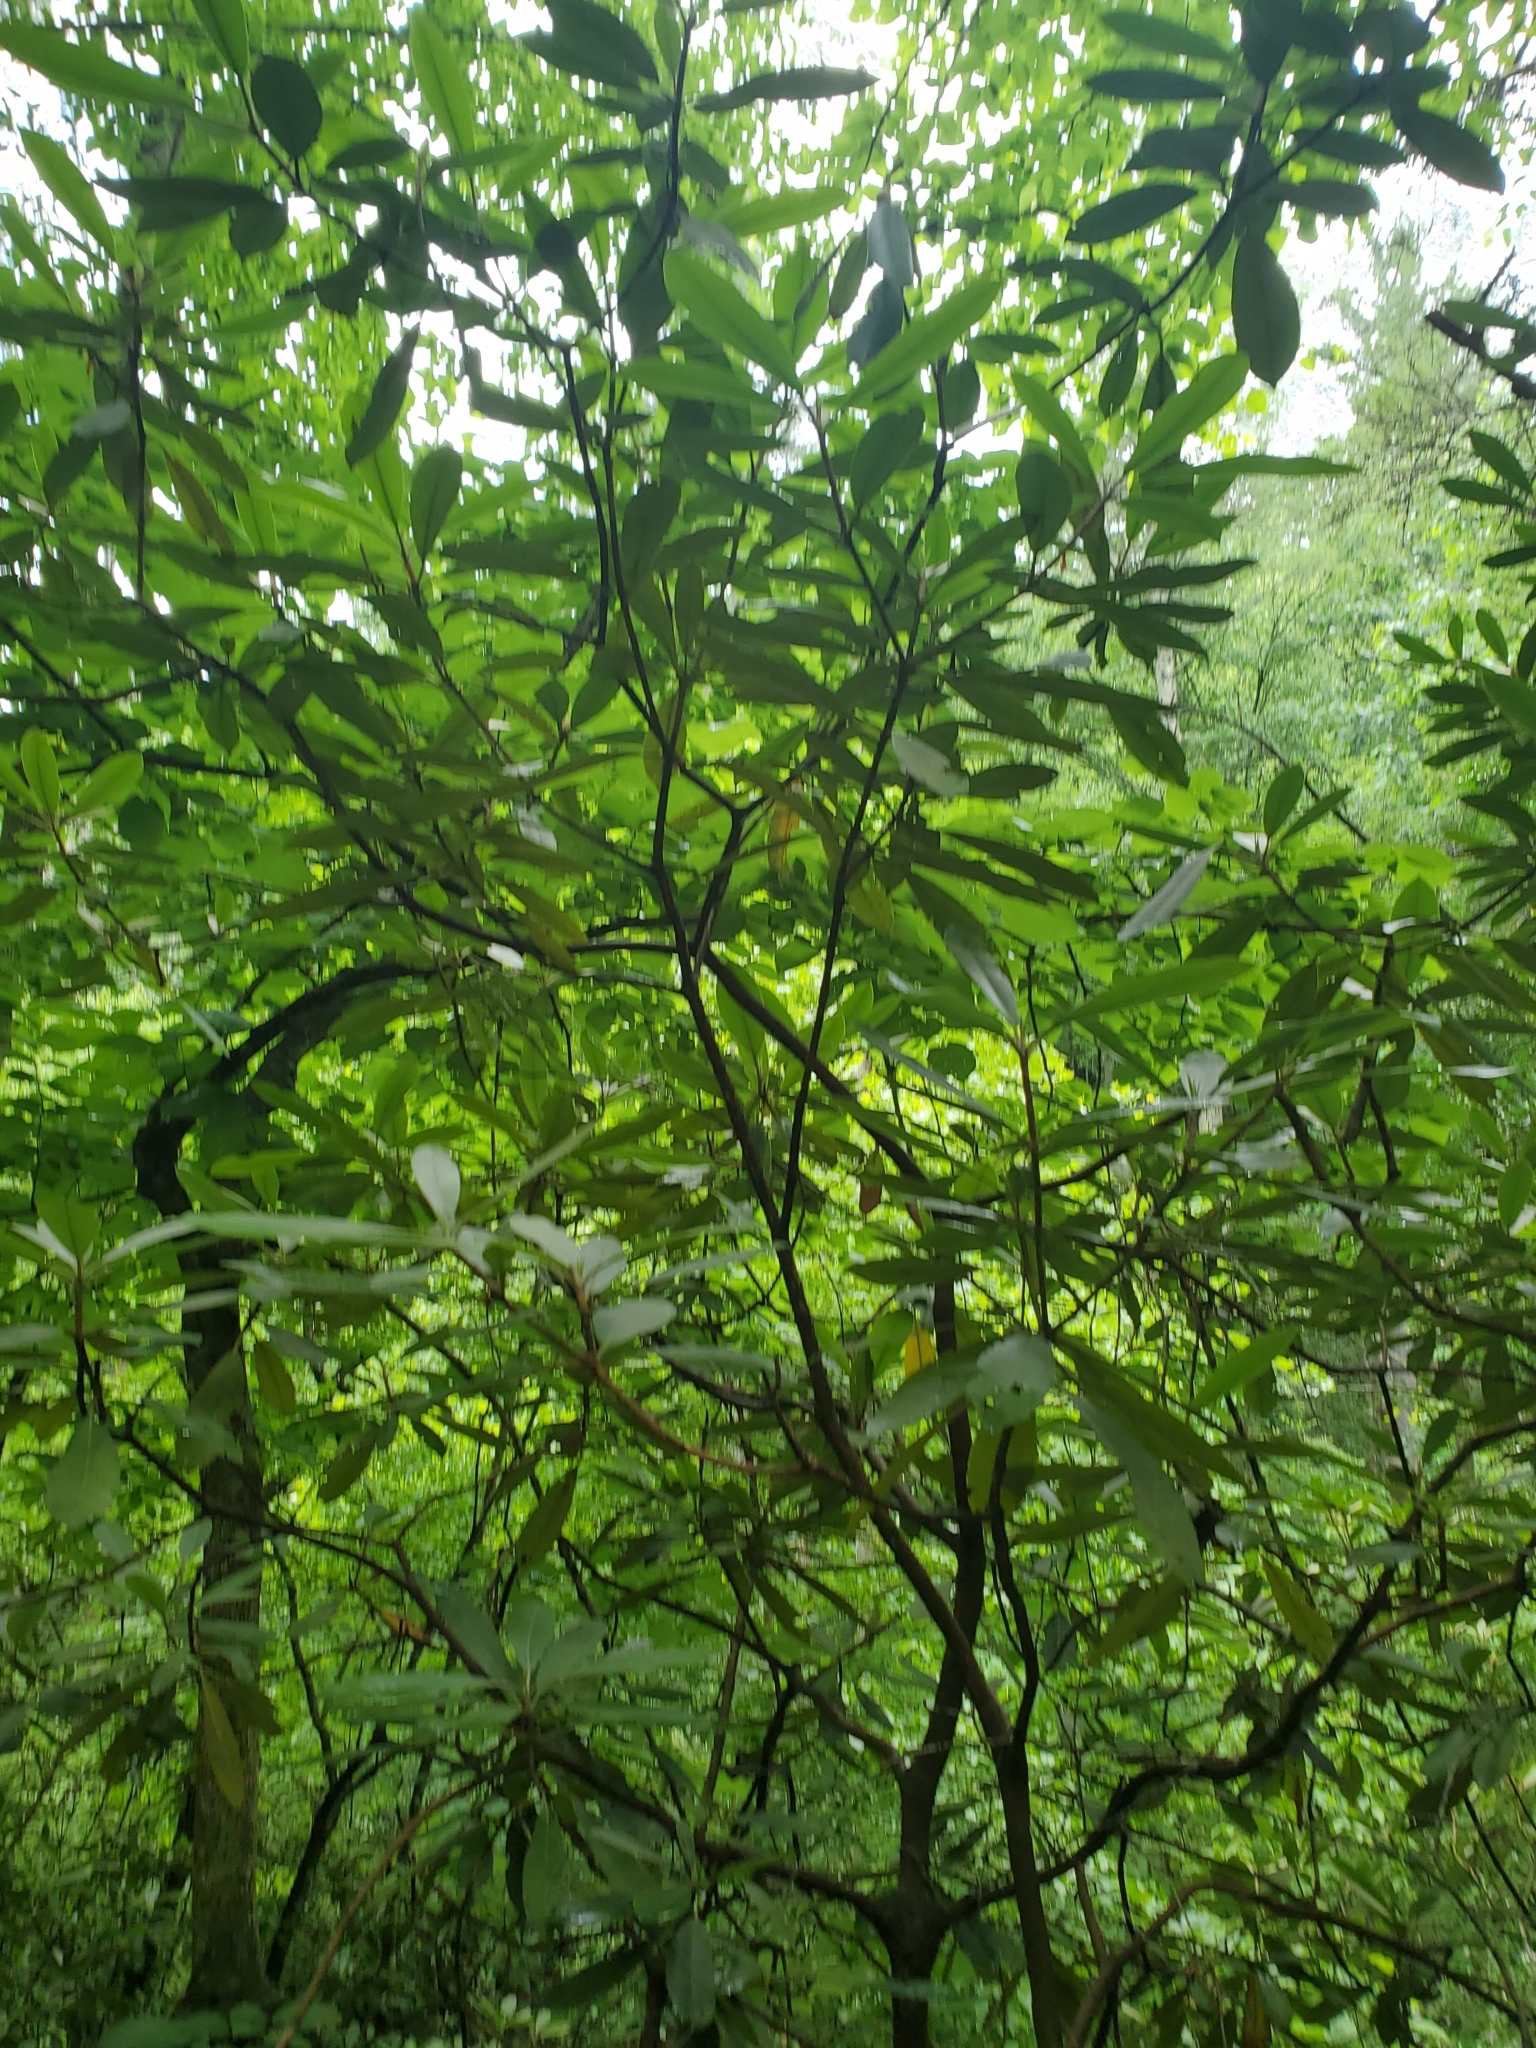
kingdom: Plantae
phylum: Tracheophyta
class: Magnoliopsida
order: Ericales
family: Ericaceae
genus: Rhododendron
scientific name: Rhododendron maximum
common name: Great rhododendron
